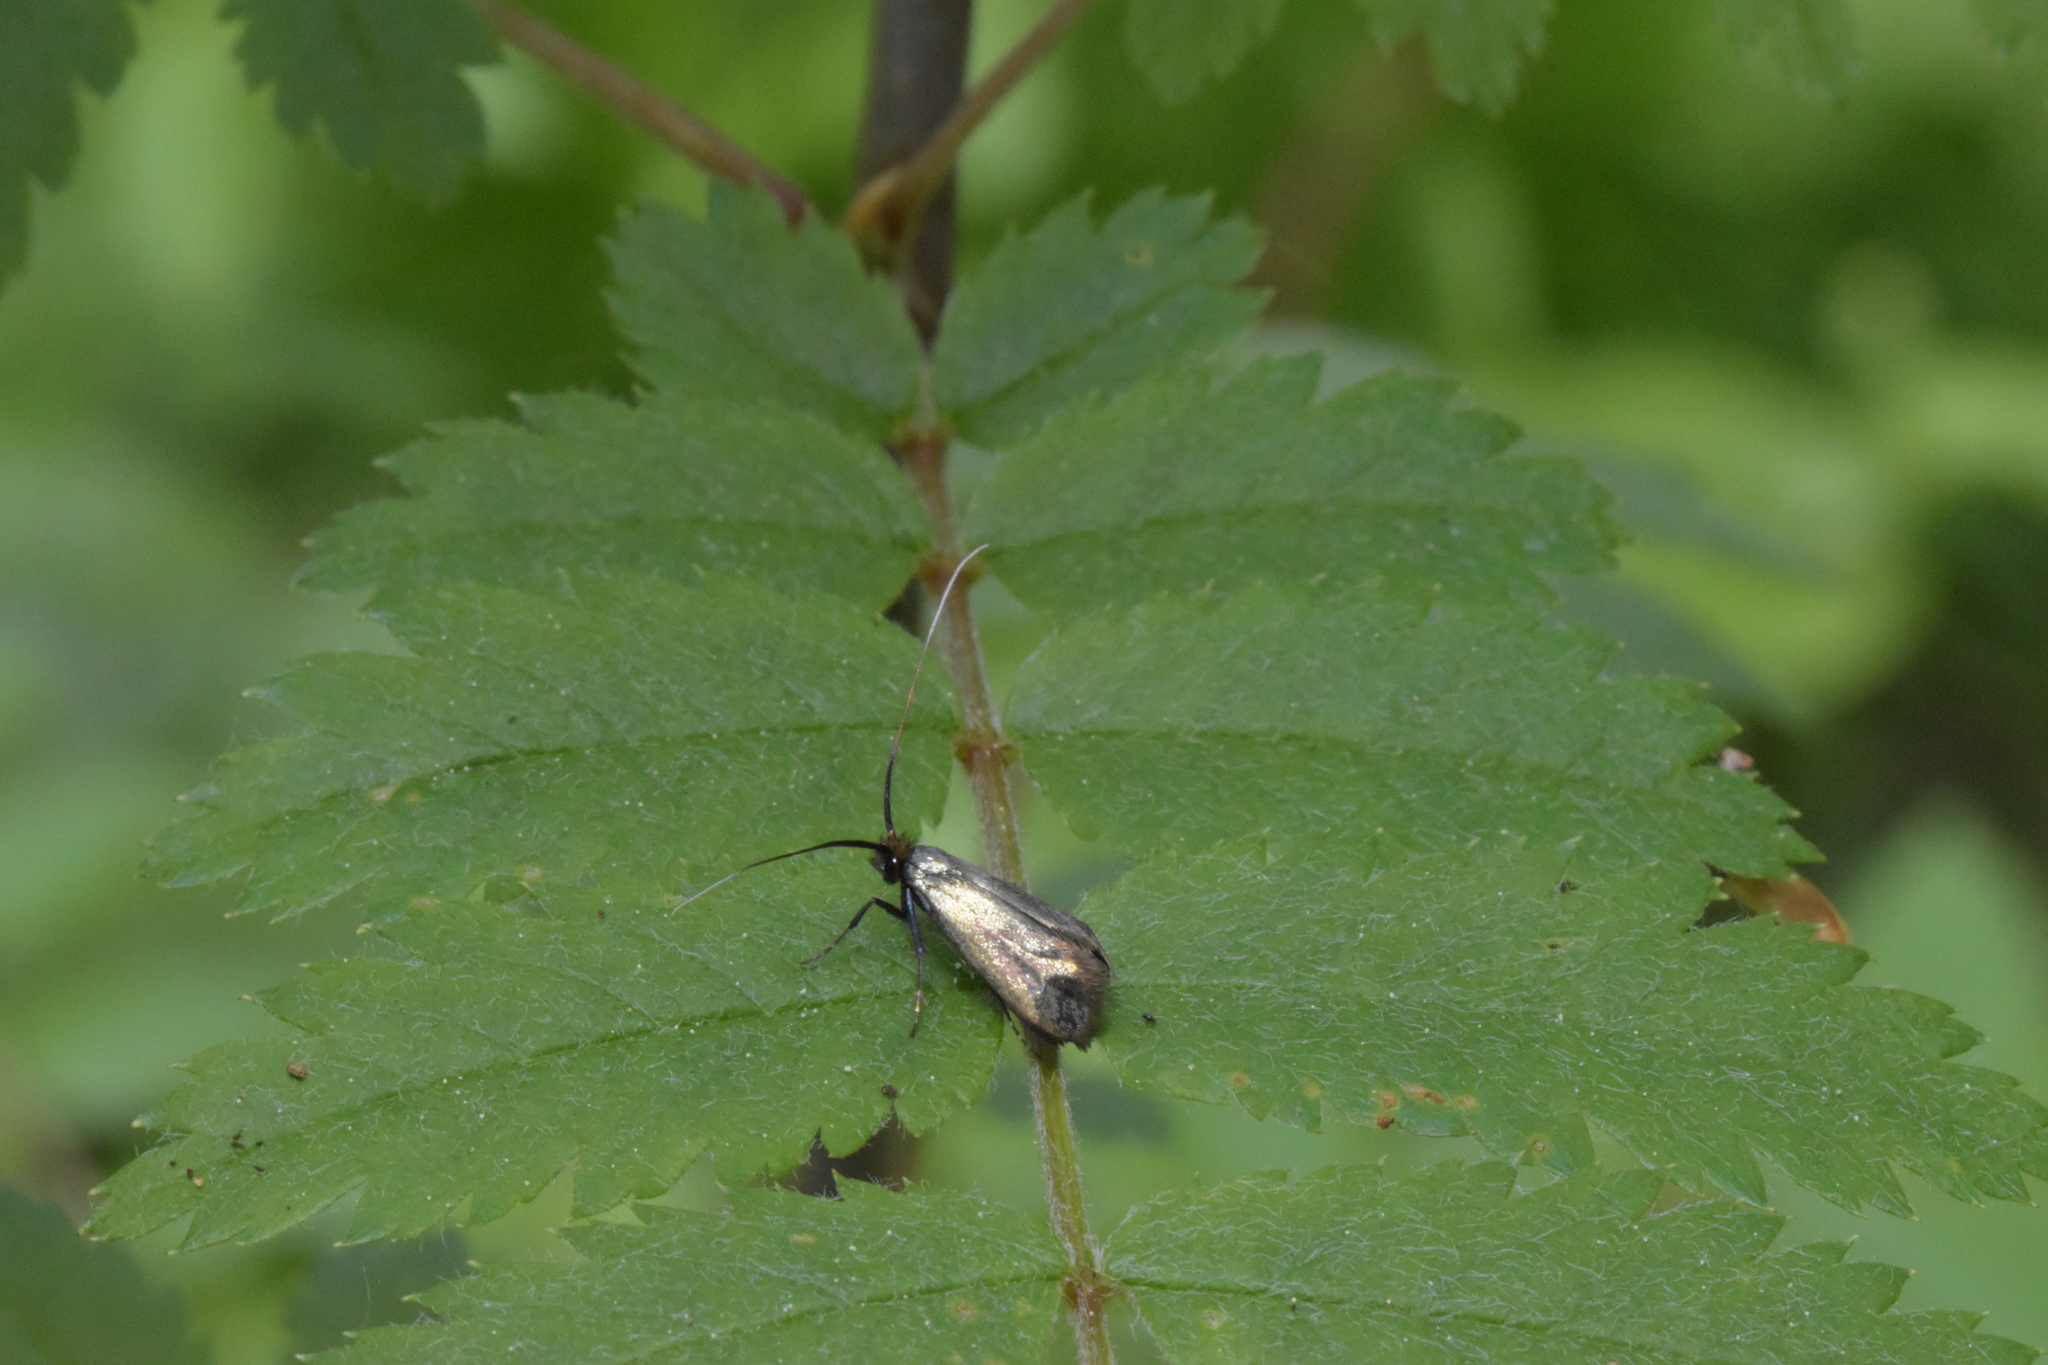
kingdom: Animalia
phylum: Arthropoda
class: Insecta
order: Lepidoptera
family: Adelidae
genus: Adela
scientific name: Adela viridella
